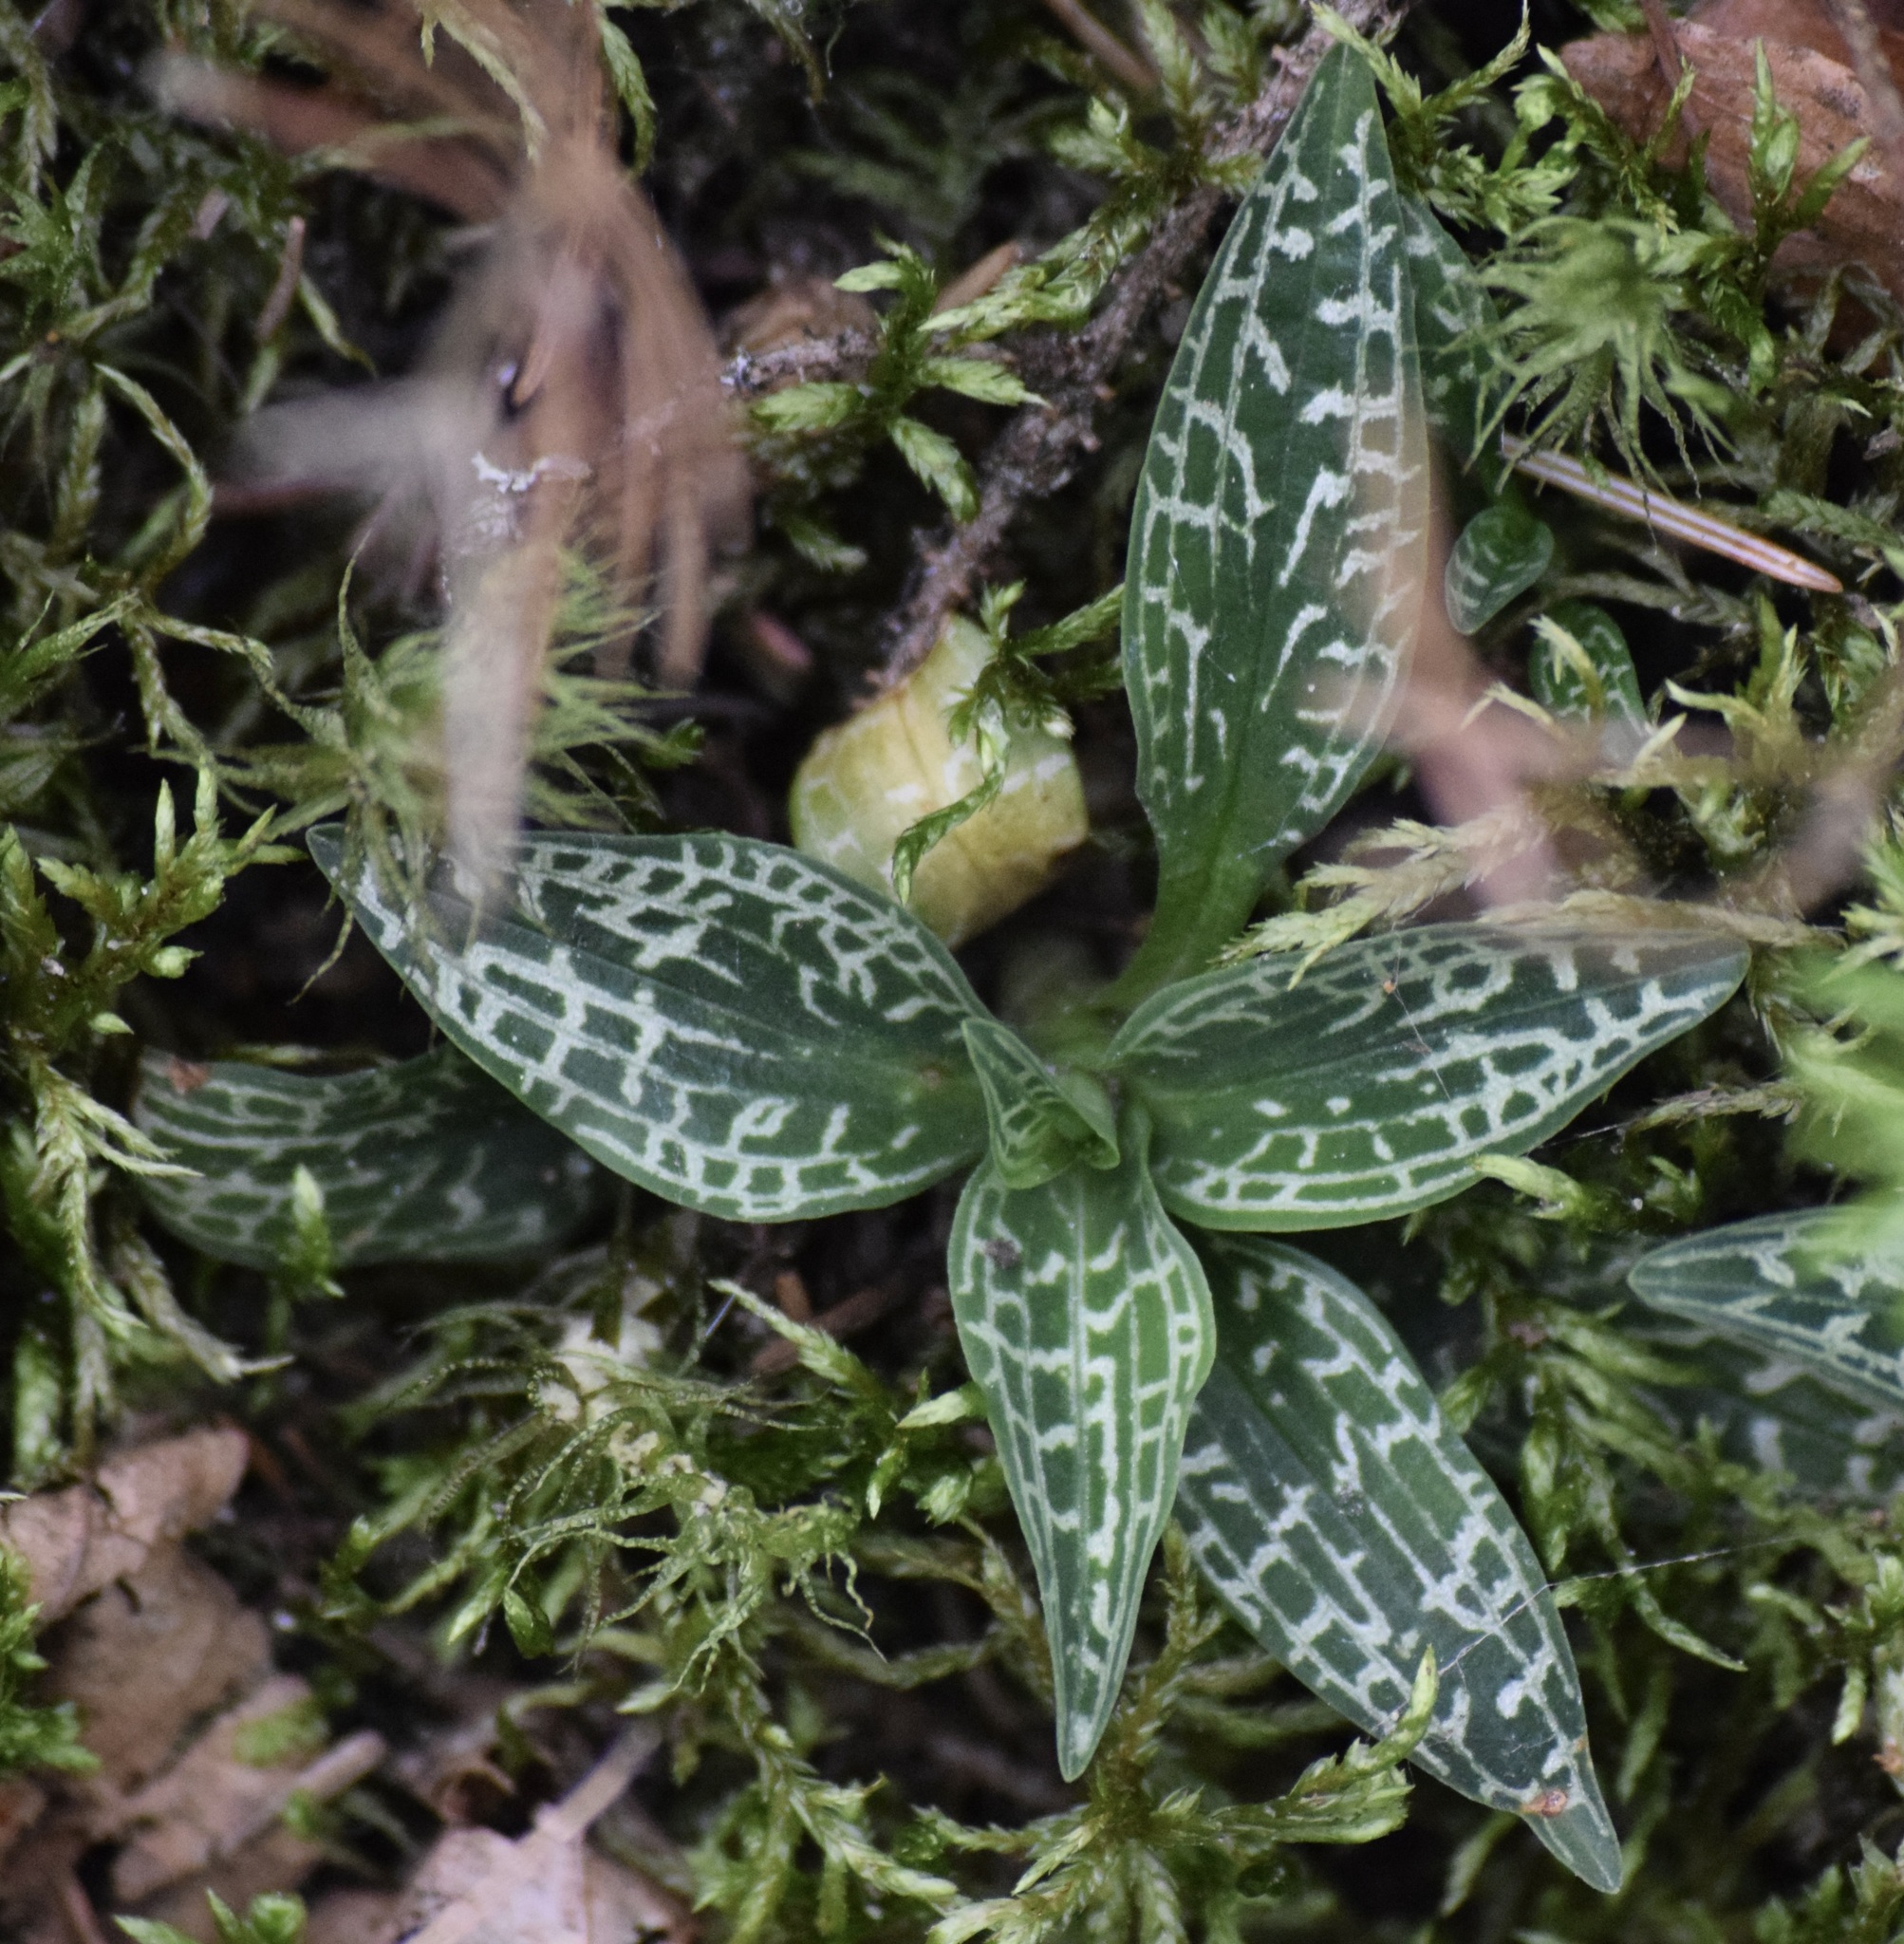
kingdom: Plantae
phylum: Tracheophyta
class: Liliopsida
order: Asparagales
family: Orchidaceae
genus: Goodyera
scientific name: Goodyera repens
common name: Creeping lady's-tresses
